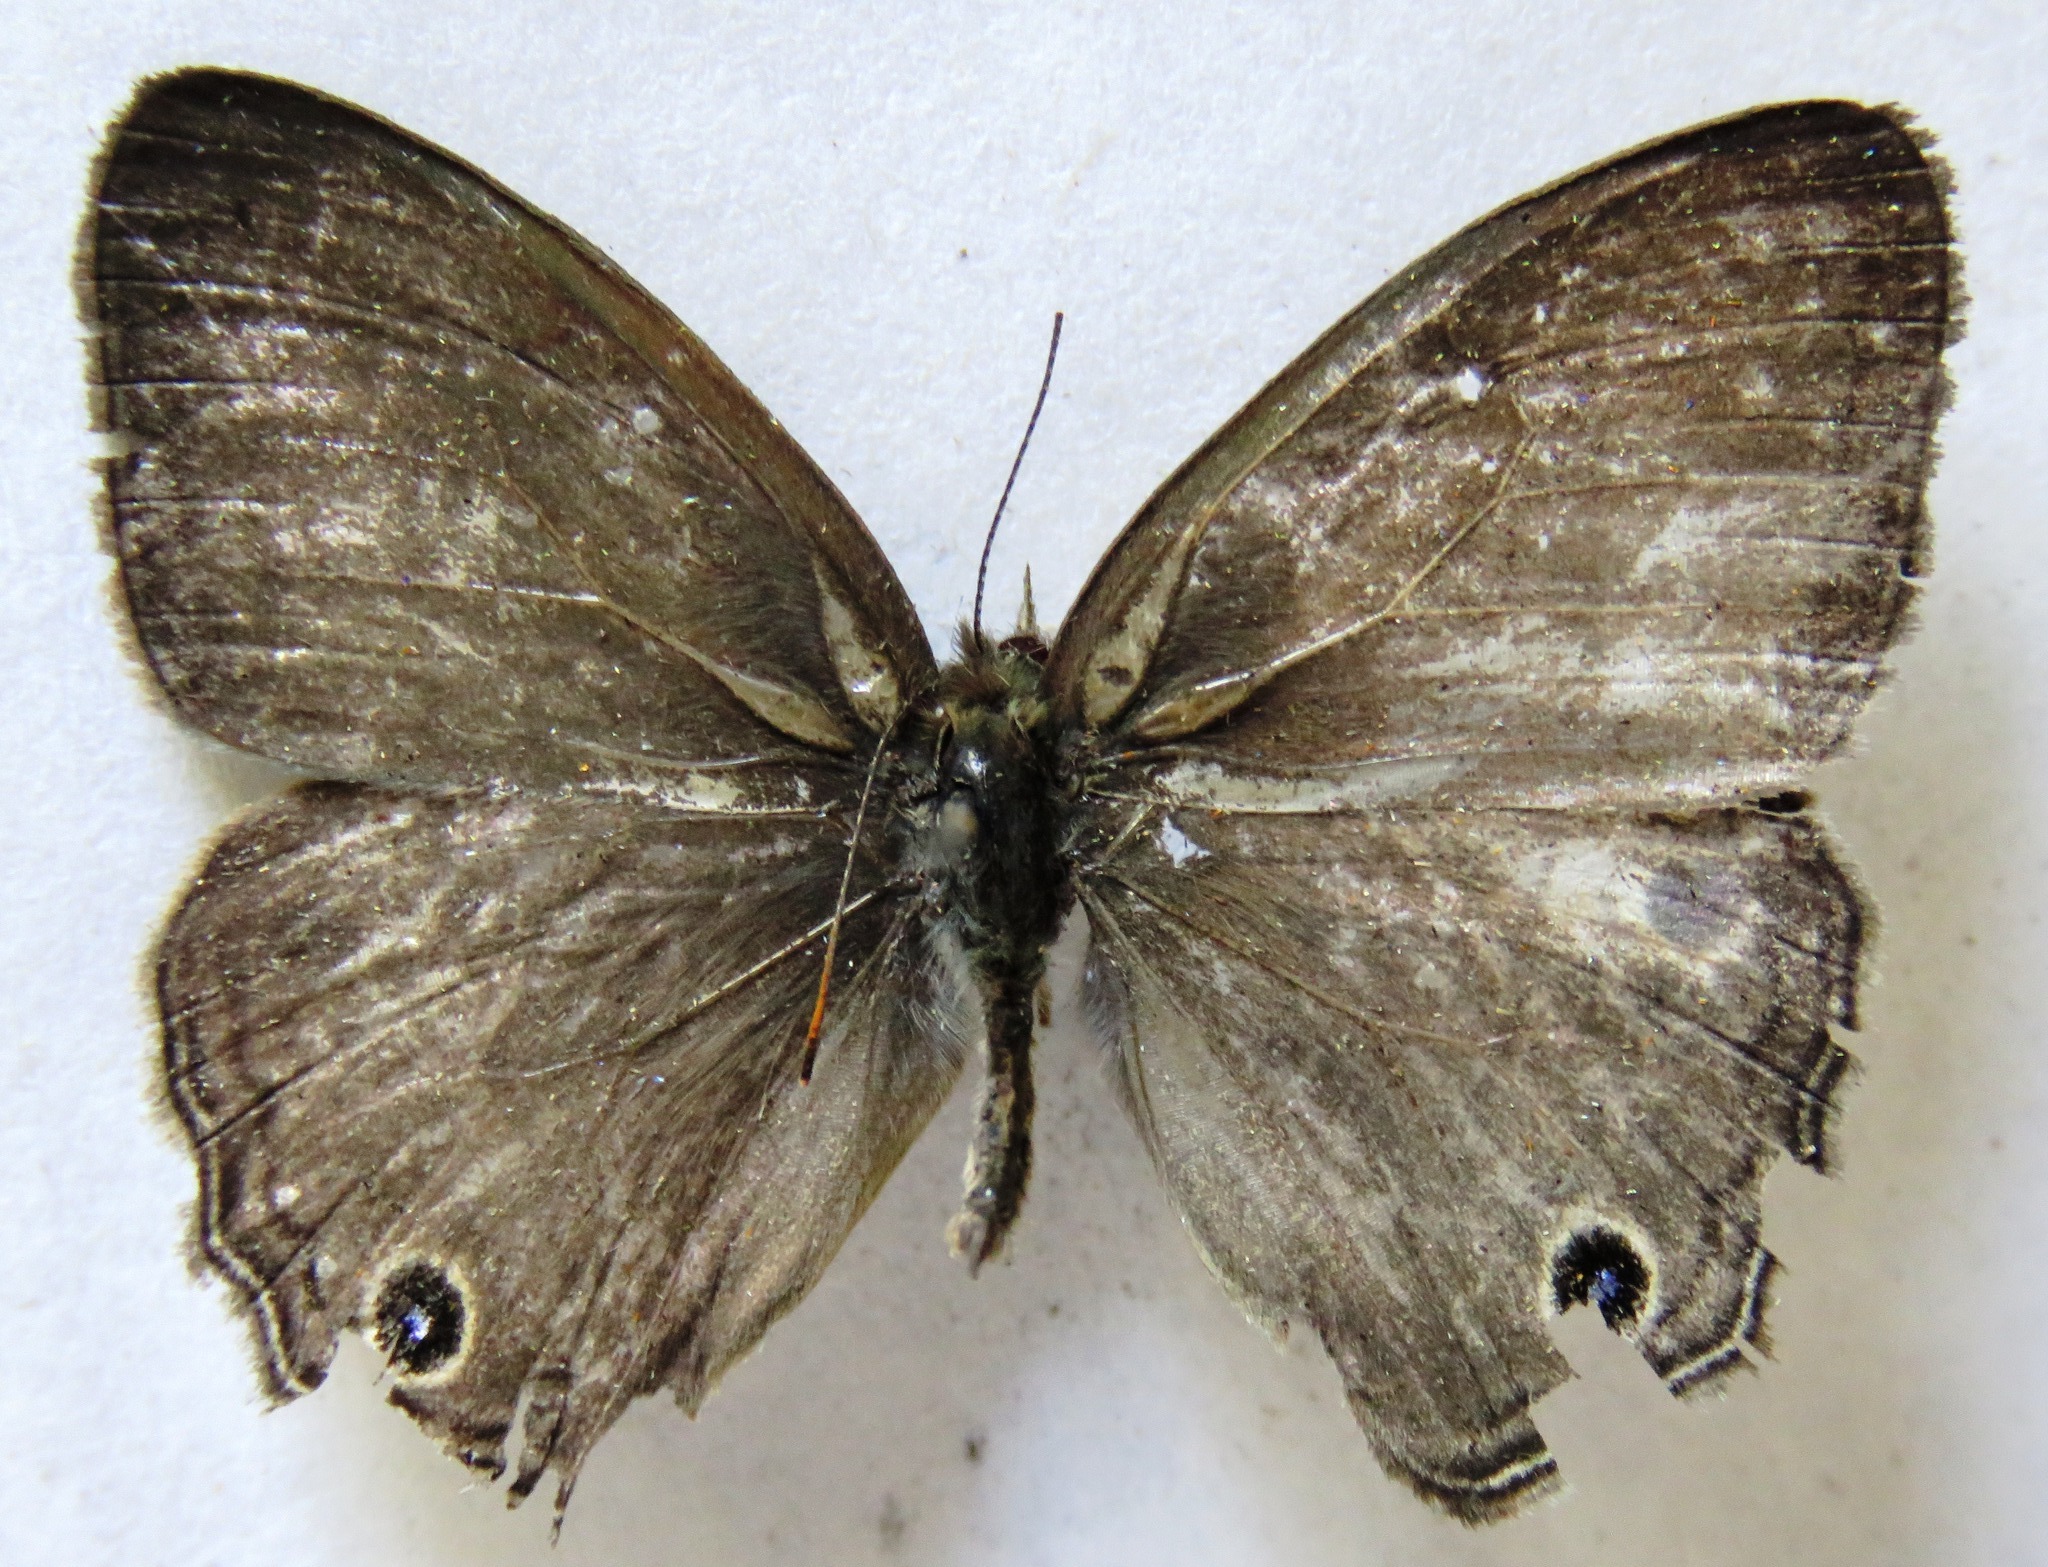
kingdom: Animalia
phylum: Arthropoda
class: Insecta
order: Lepidoptera
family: Nymphalidae
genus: Vareuptychia
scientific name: Vareuptychia similis
